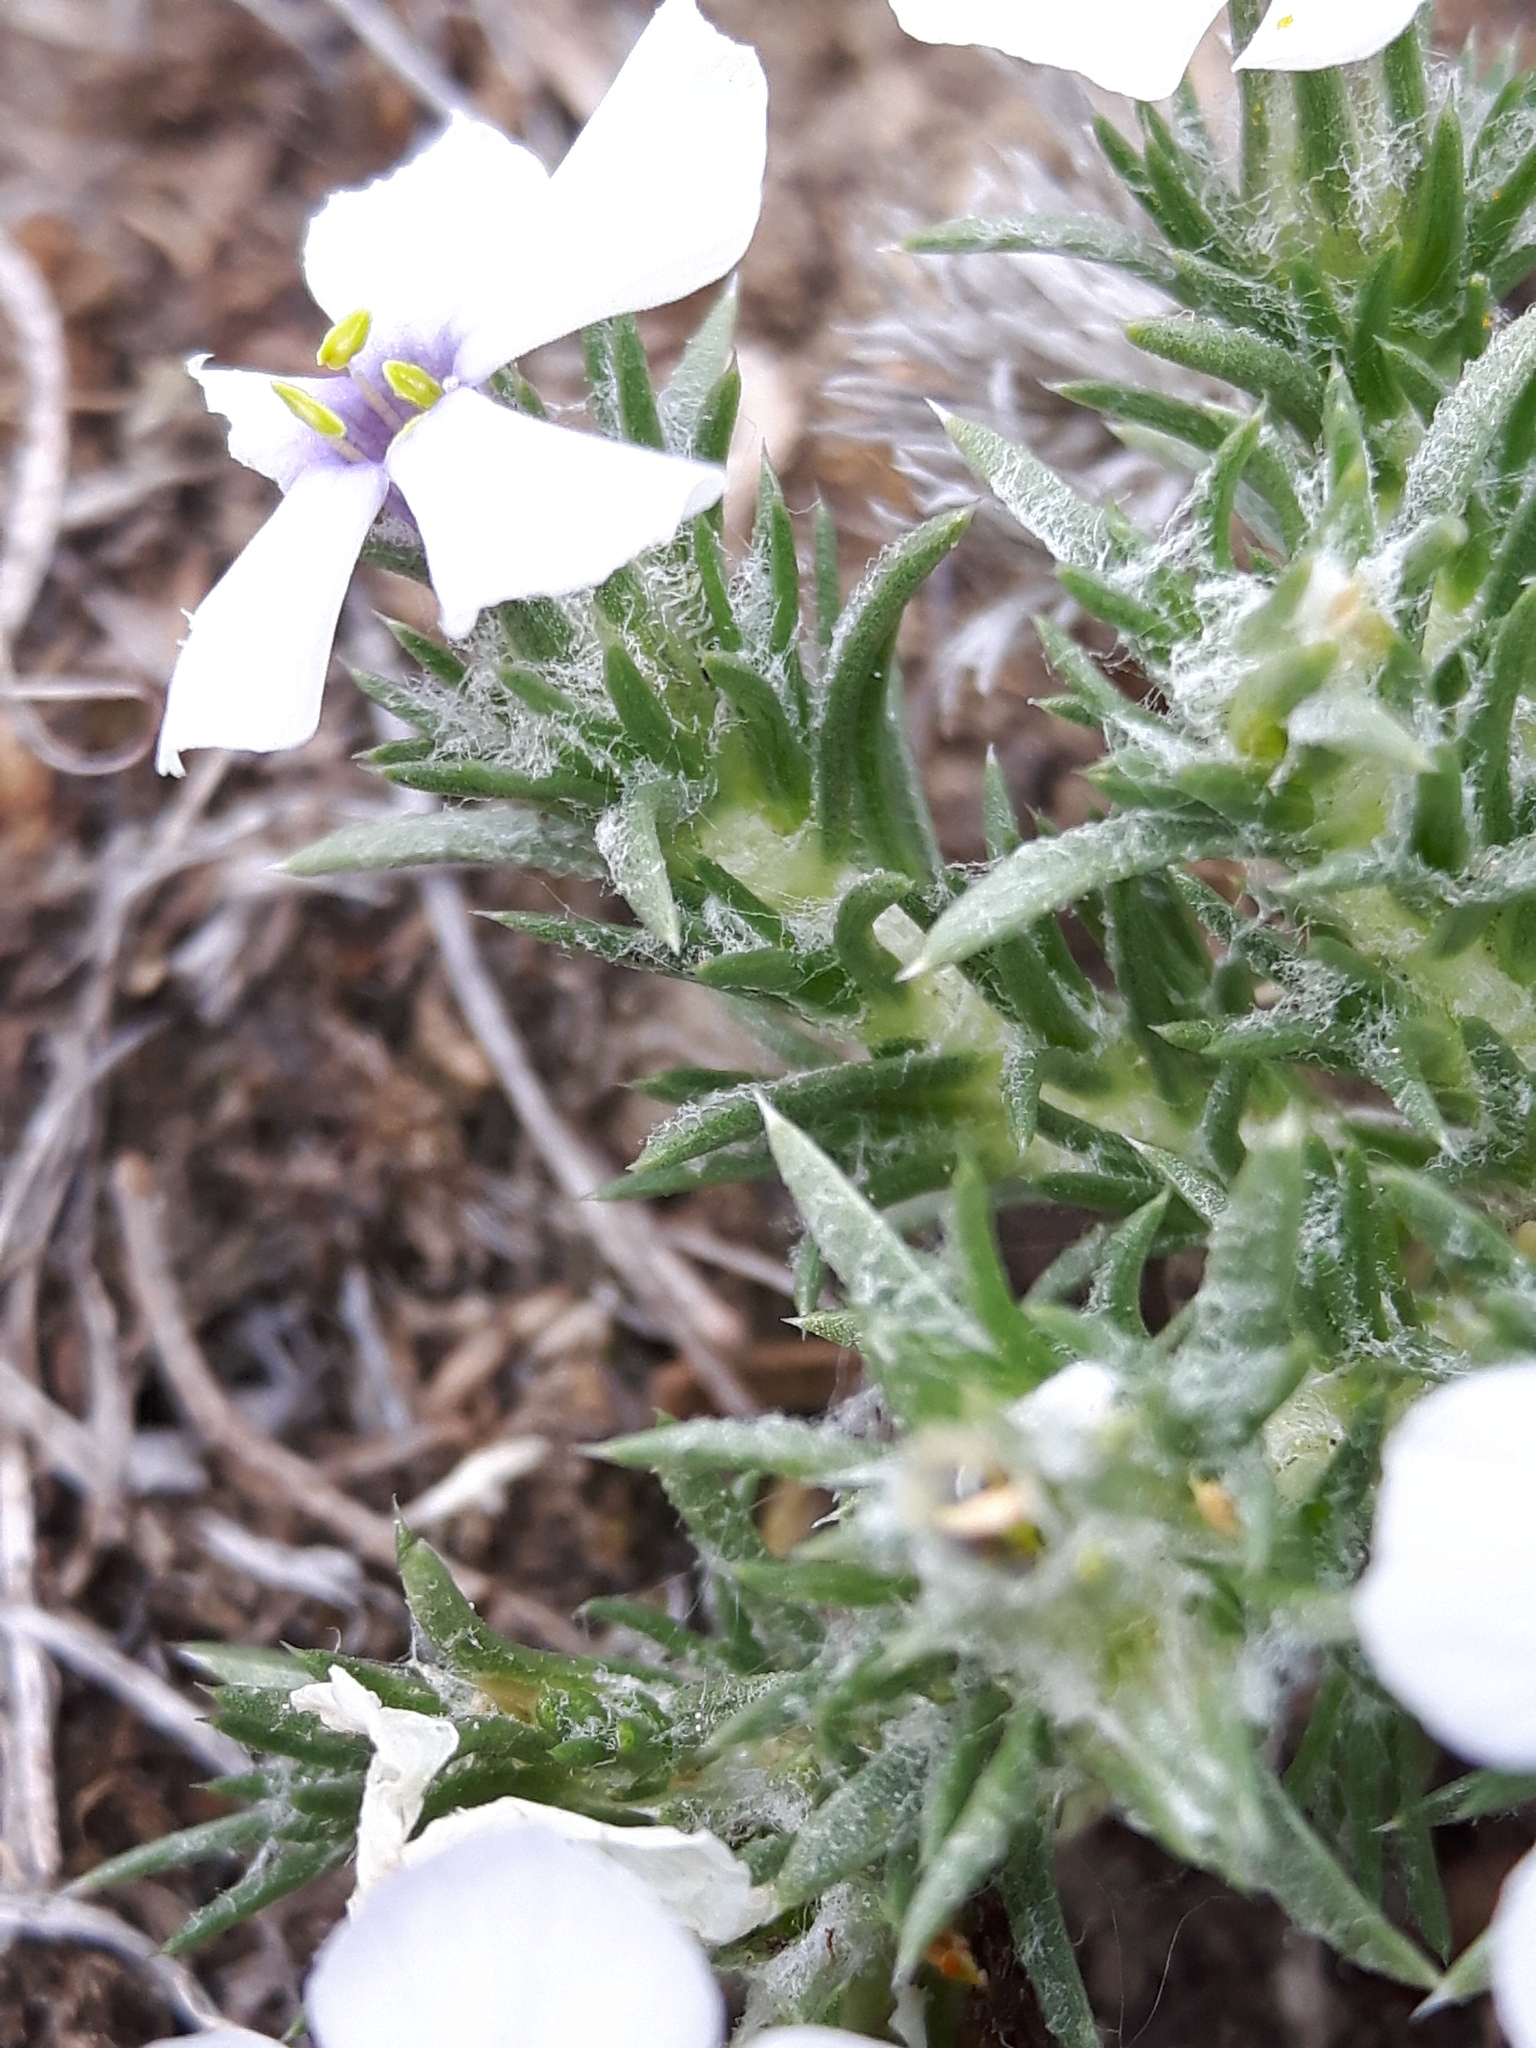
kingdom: Plantae
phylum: Tracheophyta
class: Magnoliopsida
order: Ericales
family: Polemoniaceae
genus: Phlox
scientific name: Phlox hoodii
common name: Moss phlox
